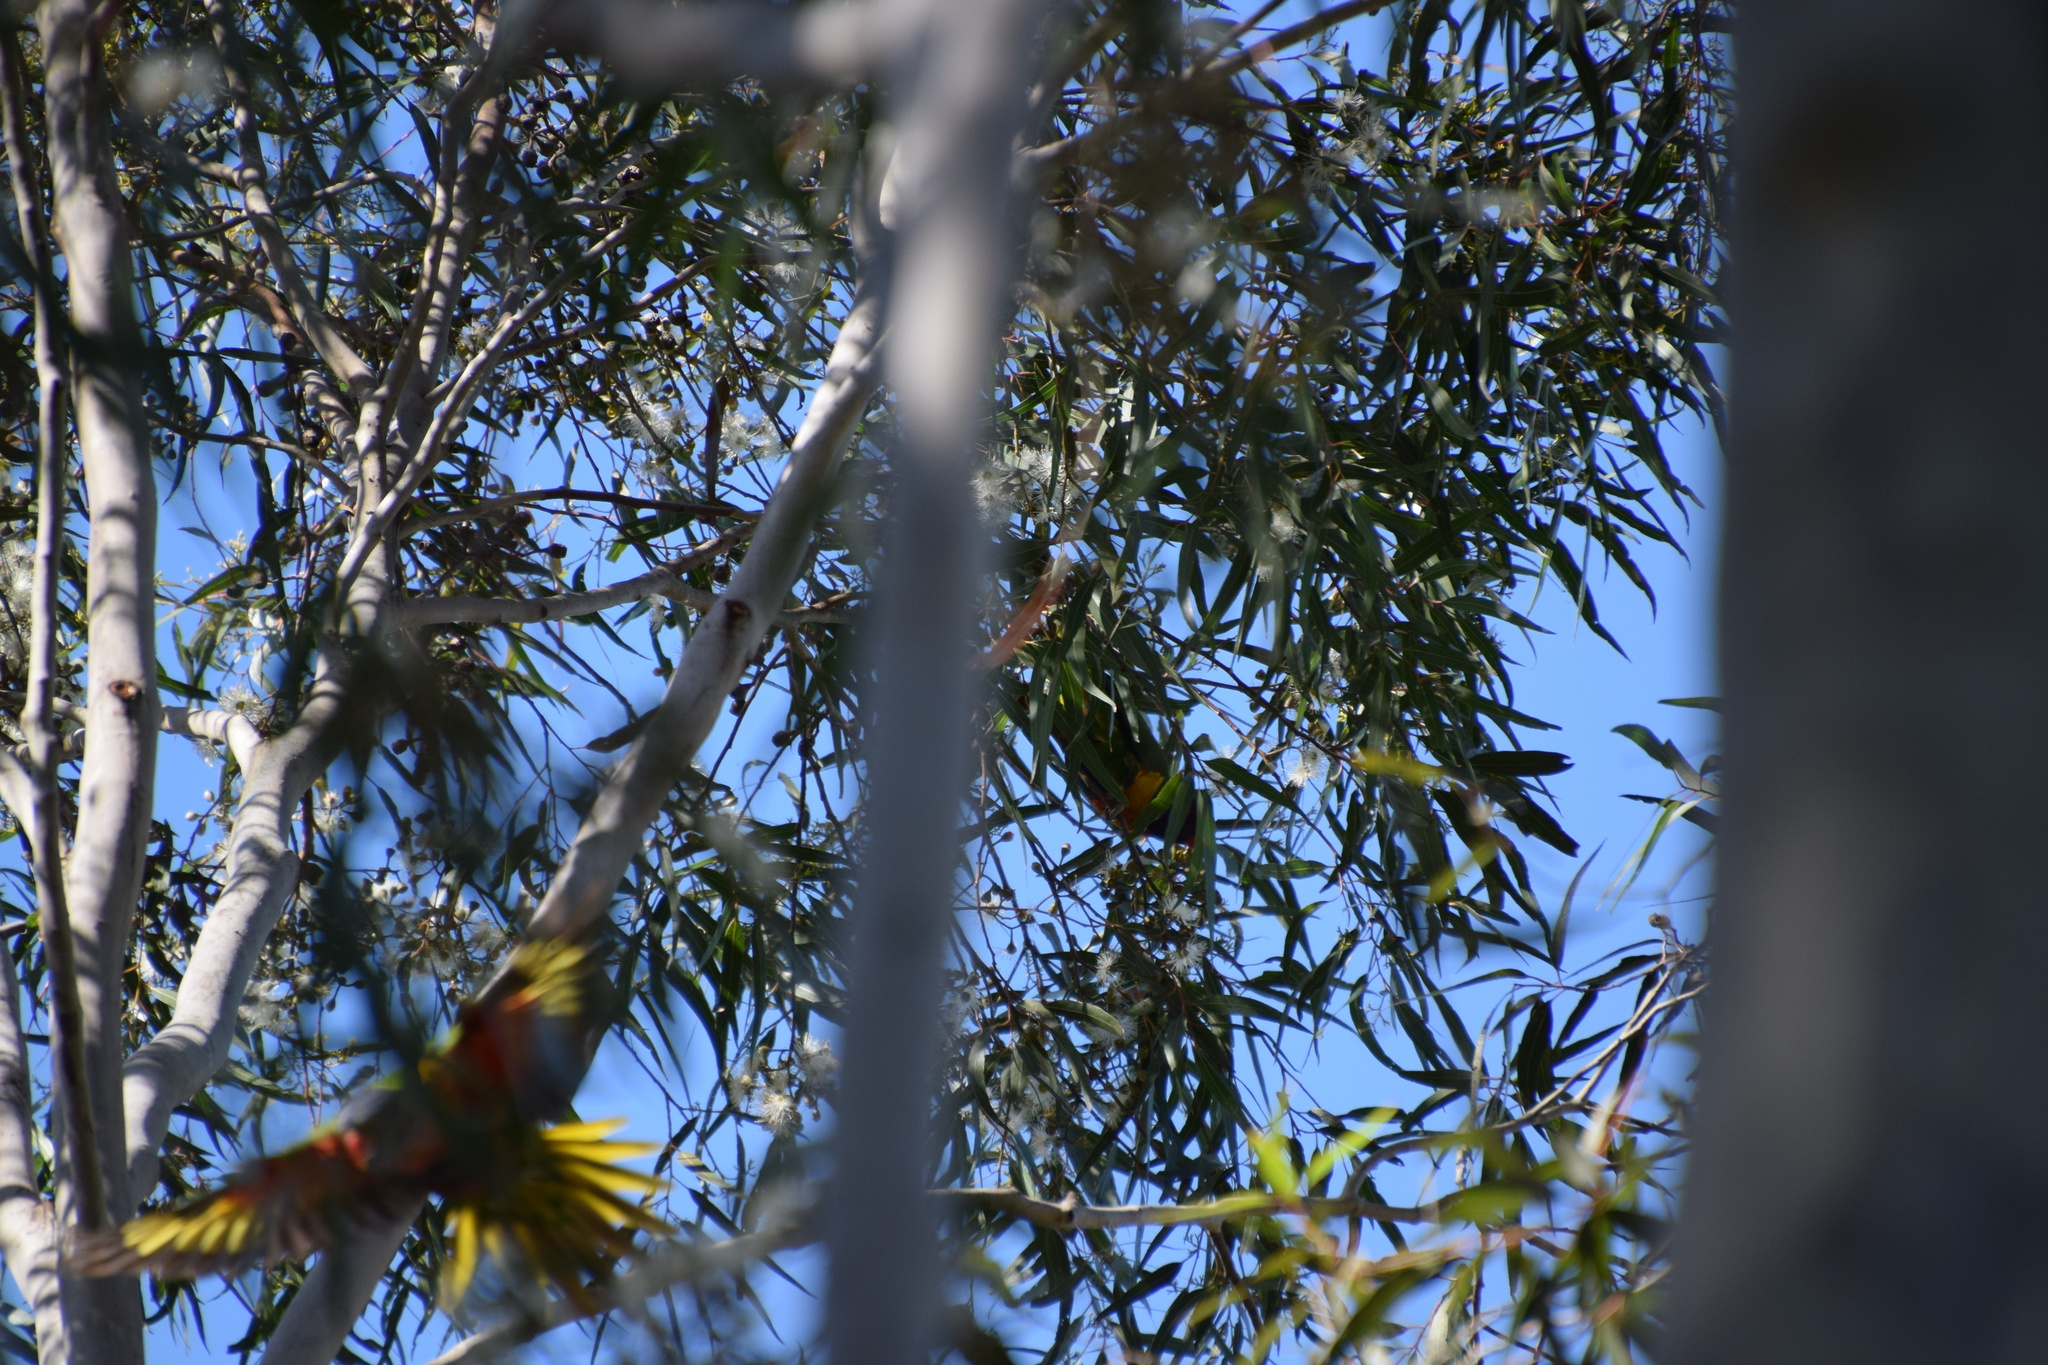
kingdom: Animalia
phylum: Chordata
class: Aves
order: Psittaciformes
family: Psittacidae
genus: Trichoglossus
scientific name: Trichoglossus haematodus
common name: Coconut lorikeet
